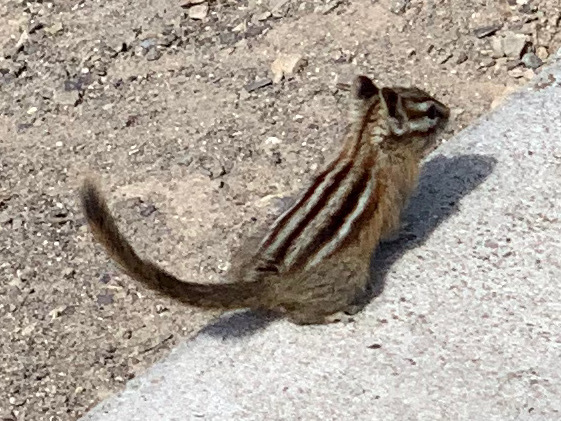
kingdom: Animalia
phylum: Chordata
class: Mammalia
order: Rodentia
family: Sciuridae
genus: Tamias
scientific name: Tamias amoenus
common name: Yellow-pine chipmunk
